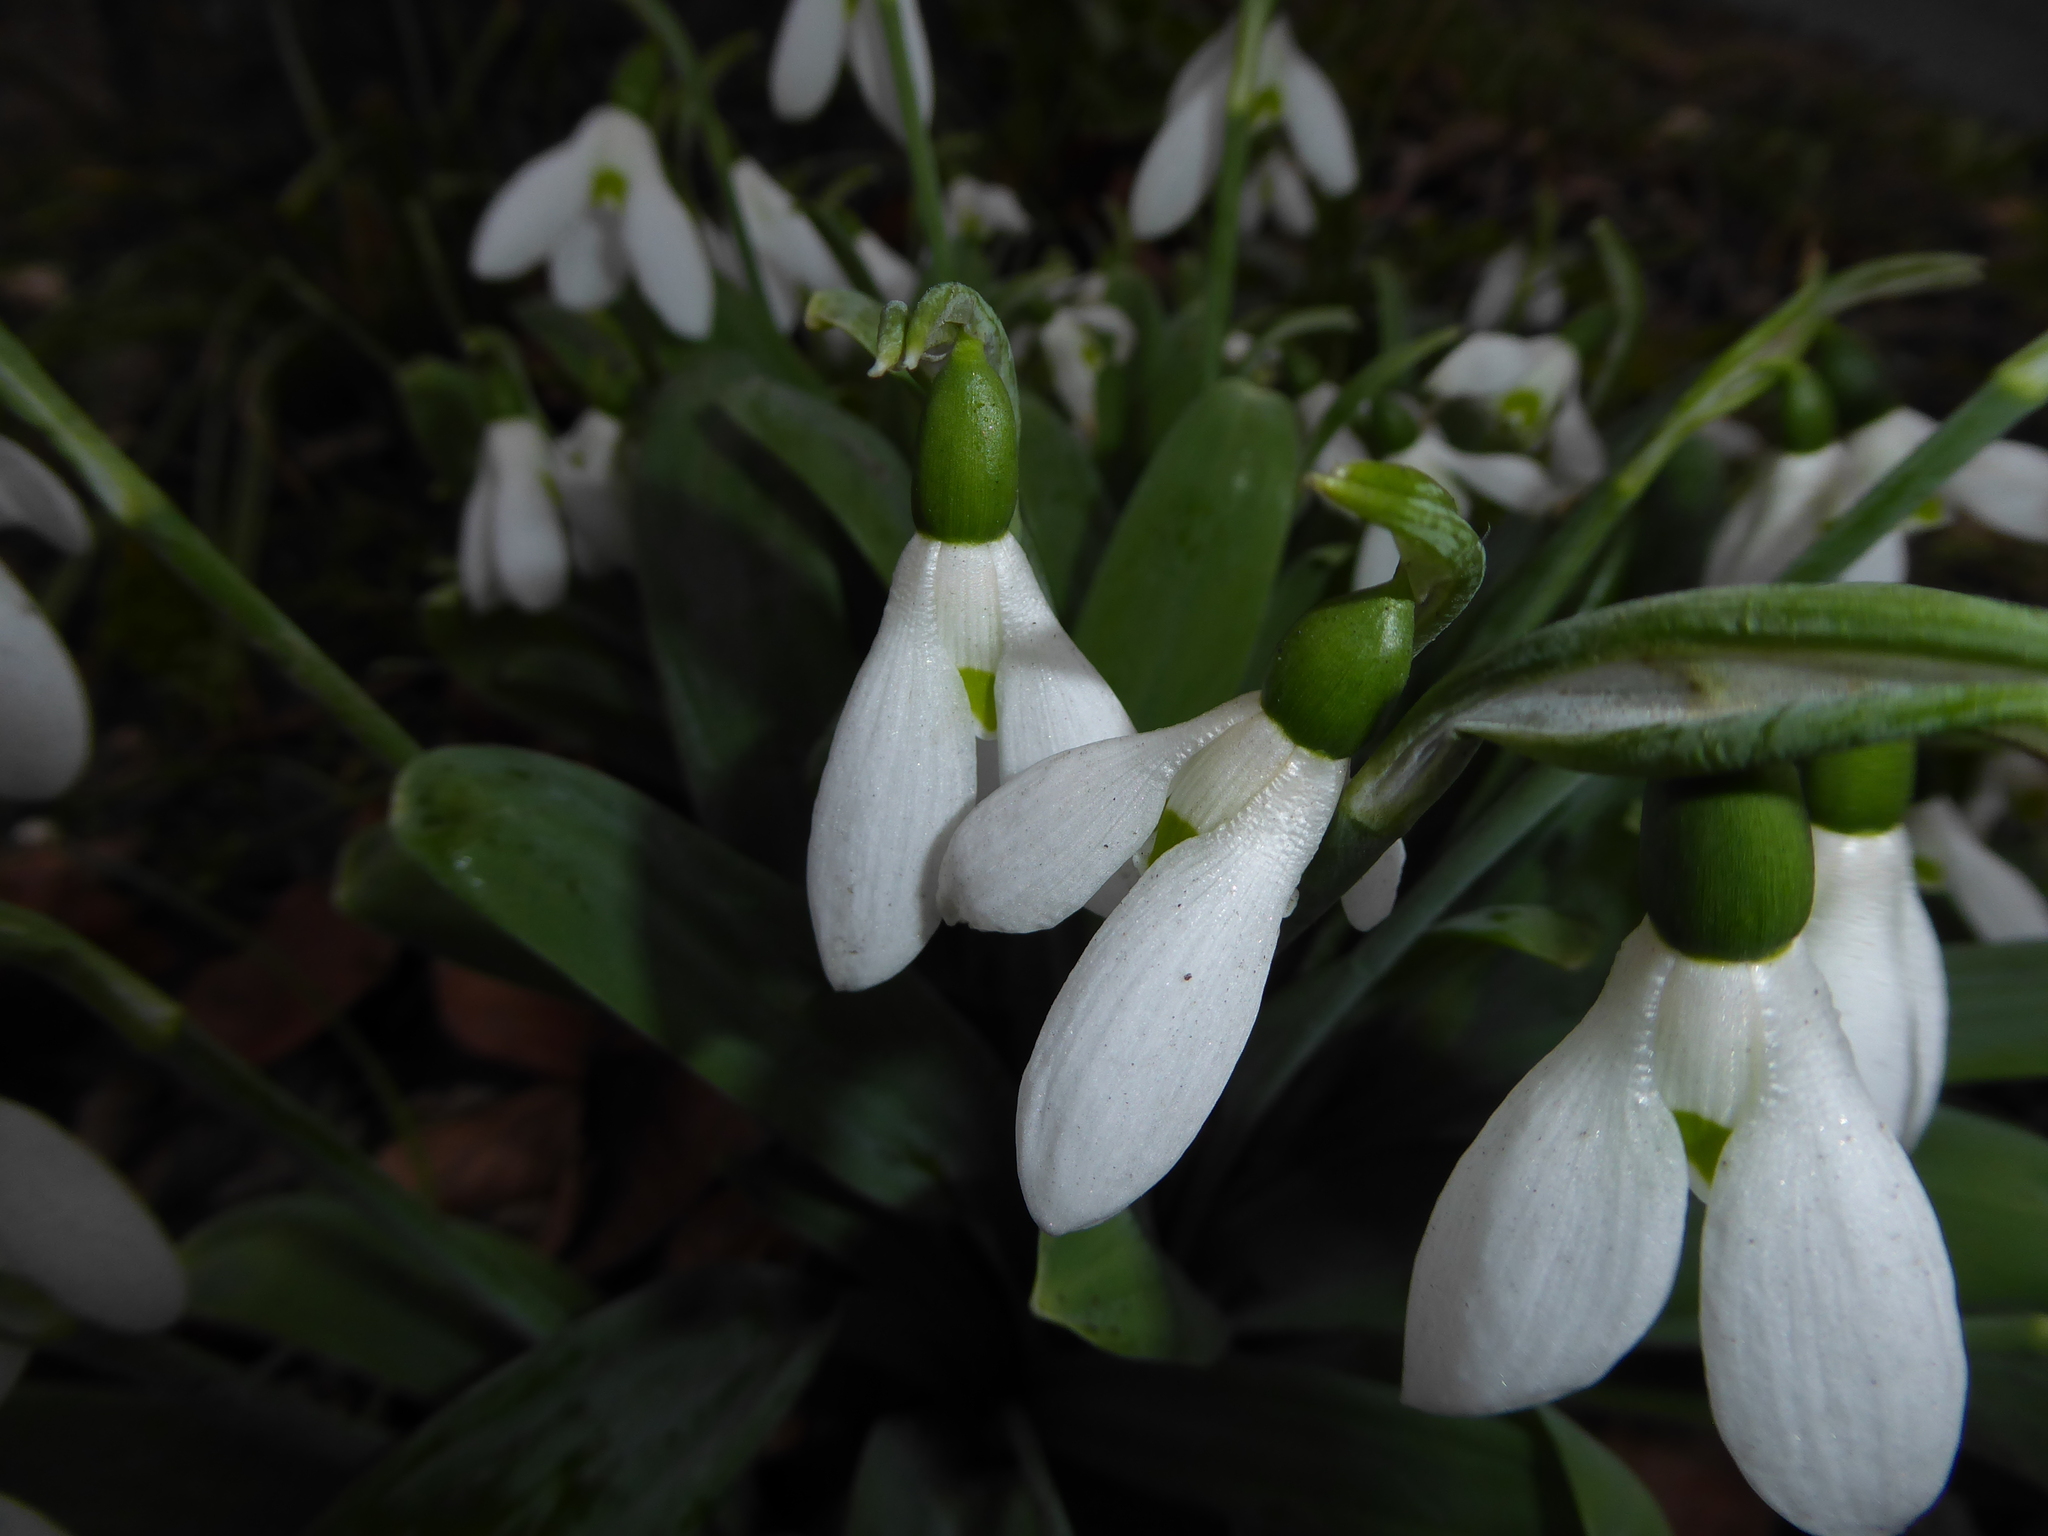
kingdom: Plantae
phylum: Tracheophyta
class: Liliopsida
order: Asparagales
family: Amaryllidaceae
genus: Galanthus
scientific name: Galanthus elwesii
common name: Greater snowdrop
